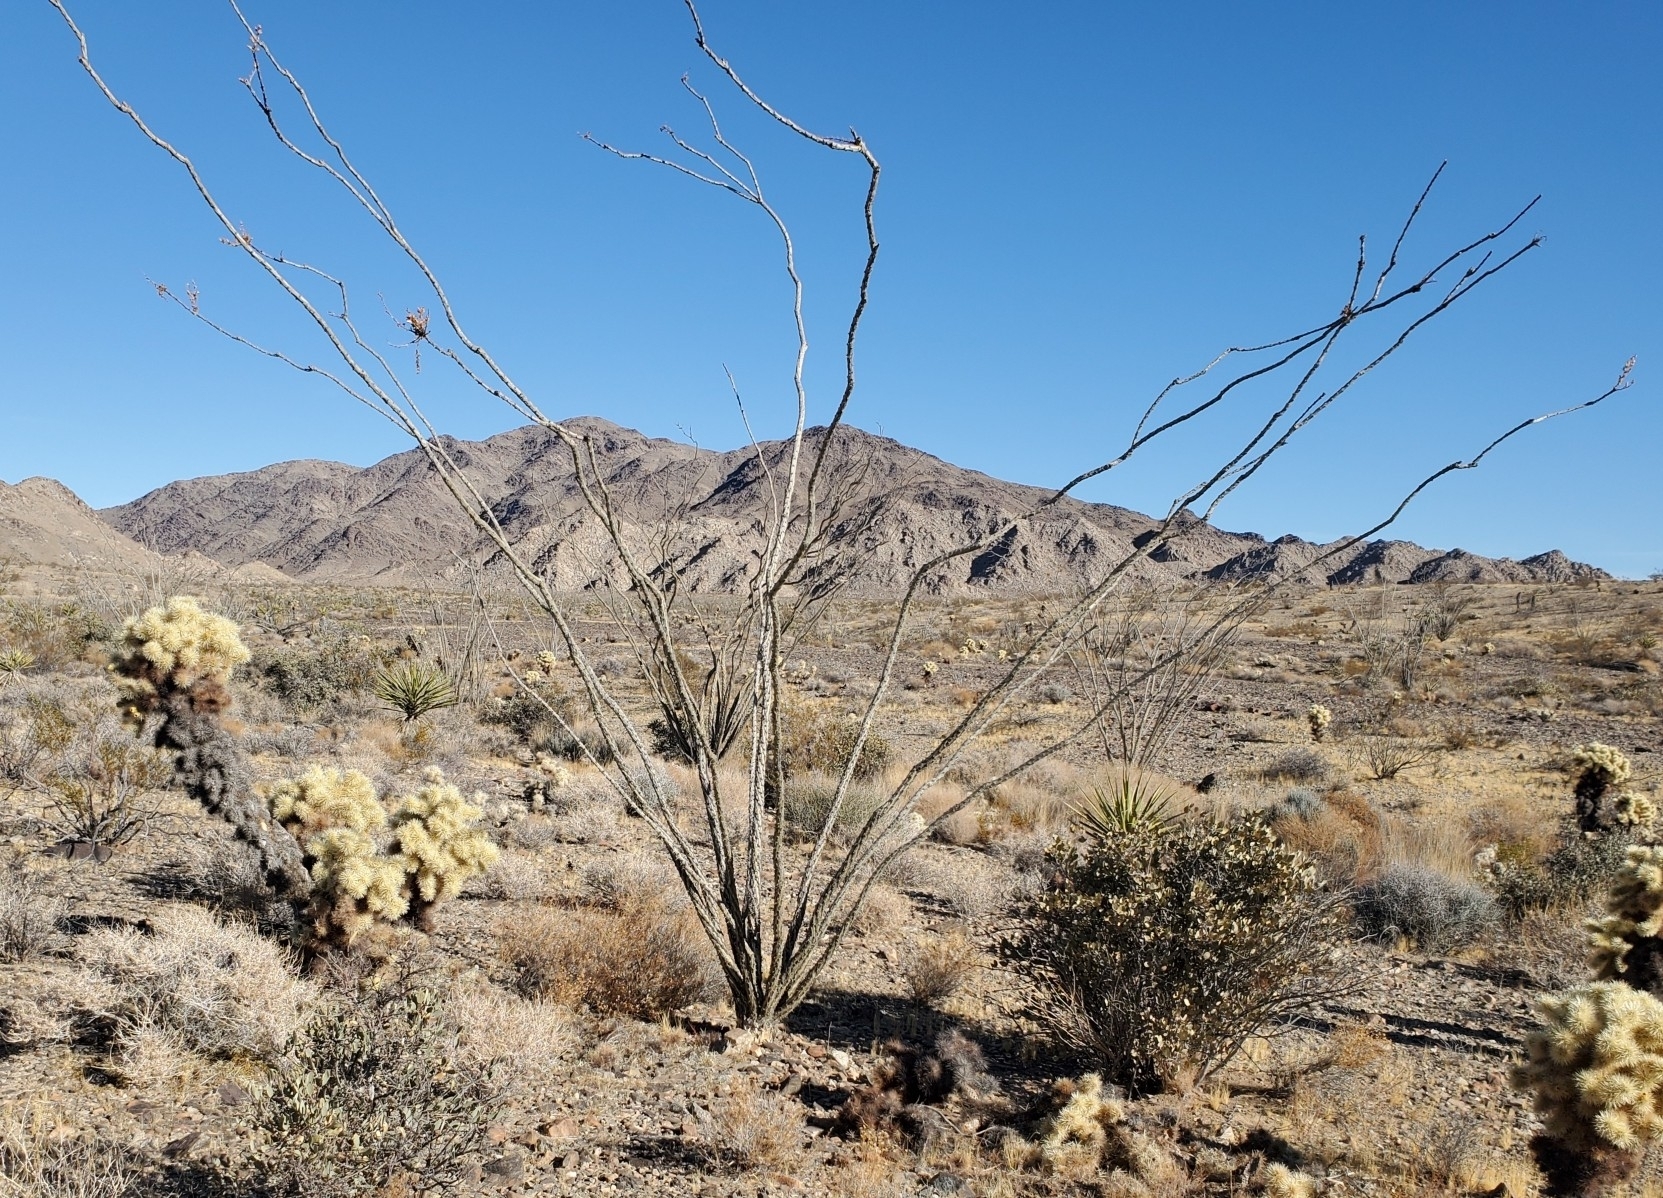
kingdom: Plantae
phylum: Tracheophyta
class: Magnoliopsida
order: Ericales
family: Fouquieriaceae
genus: Fouquieria
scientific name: Fouquieria splendens
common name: Vine-cactus
